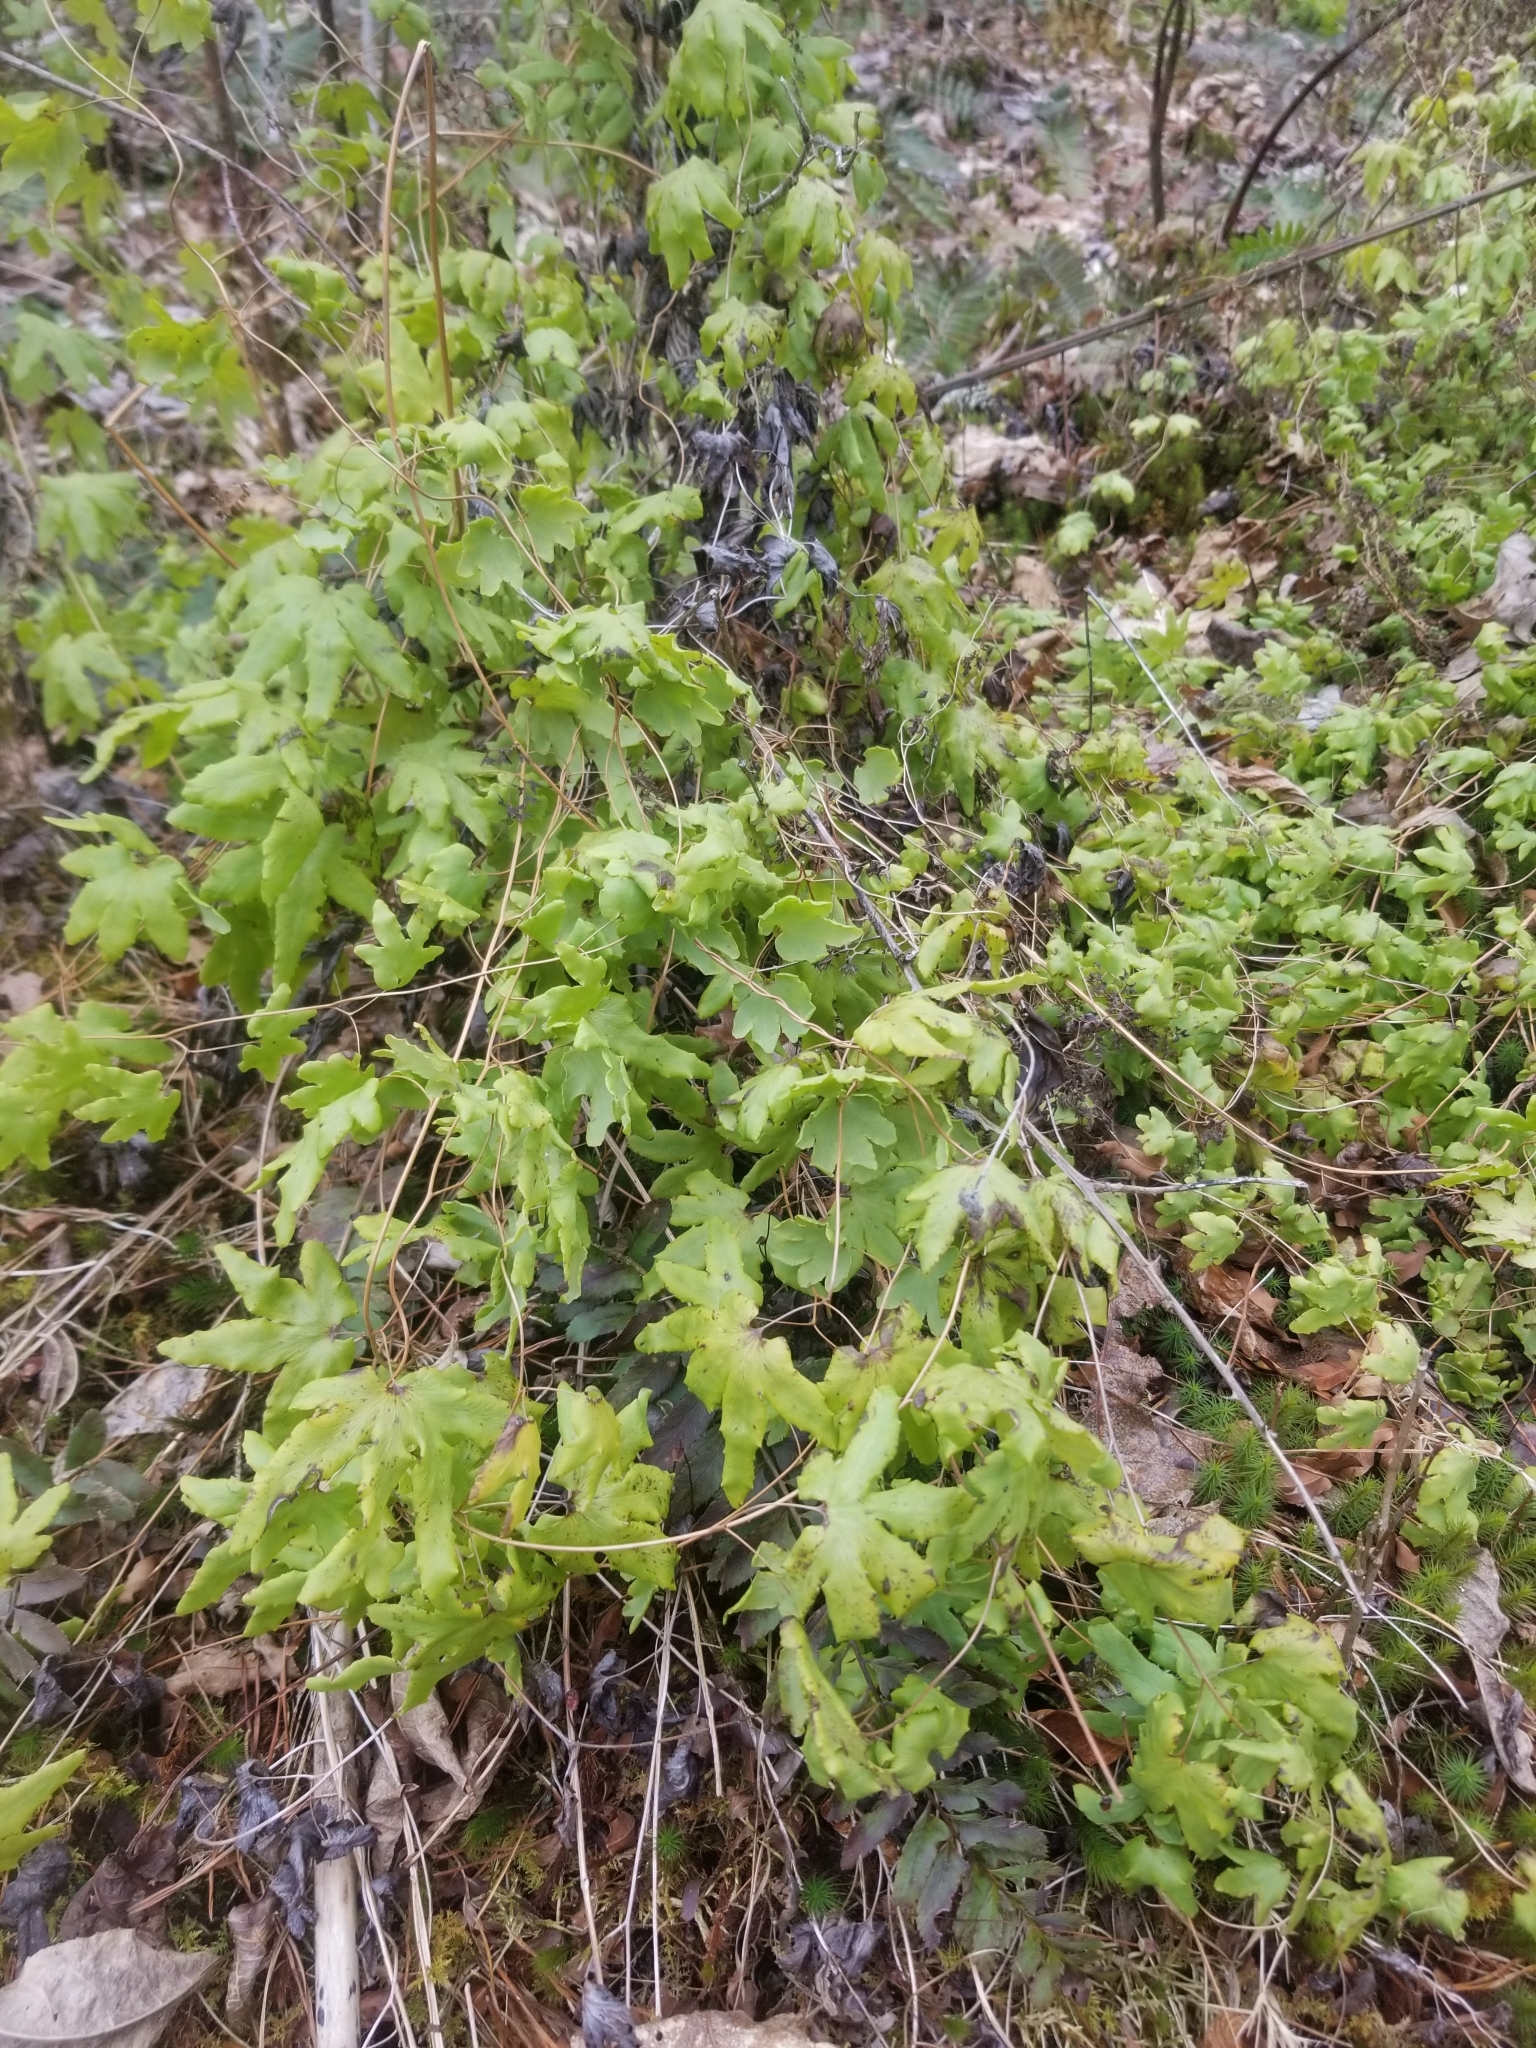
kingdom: Plantae
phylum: Tracheophyta
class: Polypodiopsida
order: Schizaeales
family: Lygodiaceae
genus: Lygodium
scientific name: Lygodium palmatum
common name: American climbing fern
